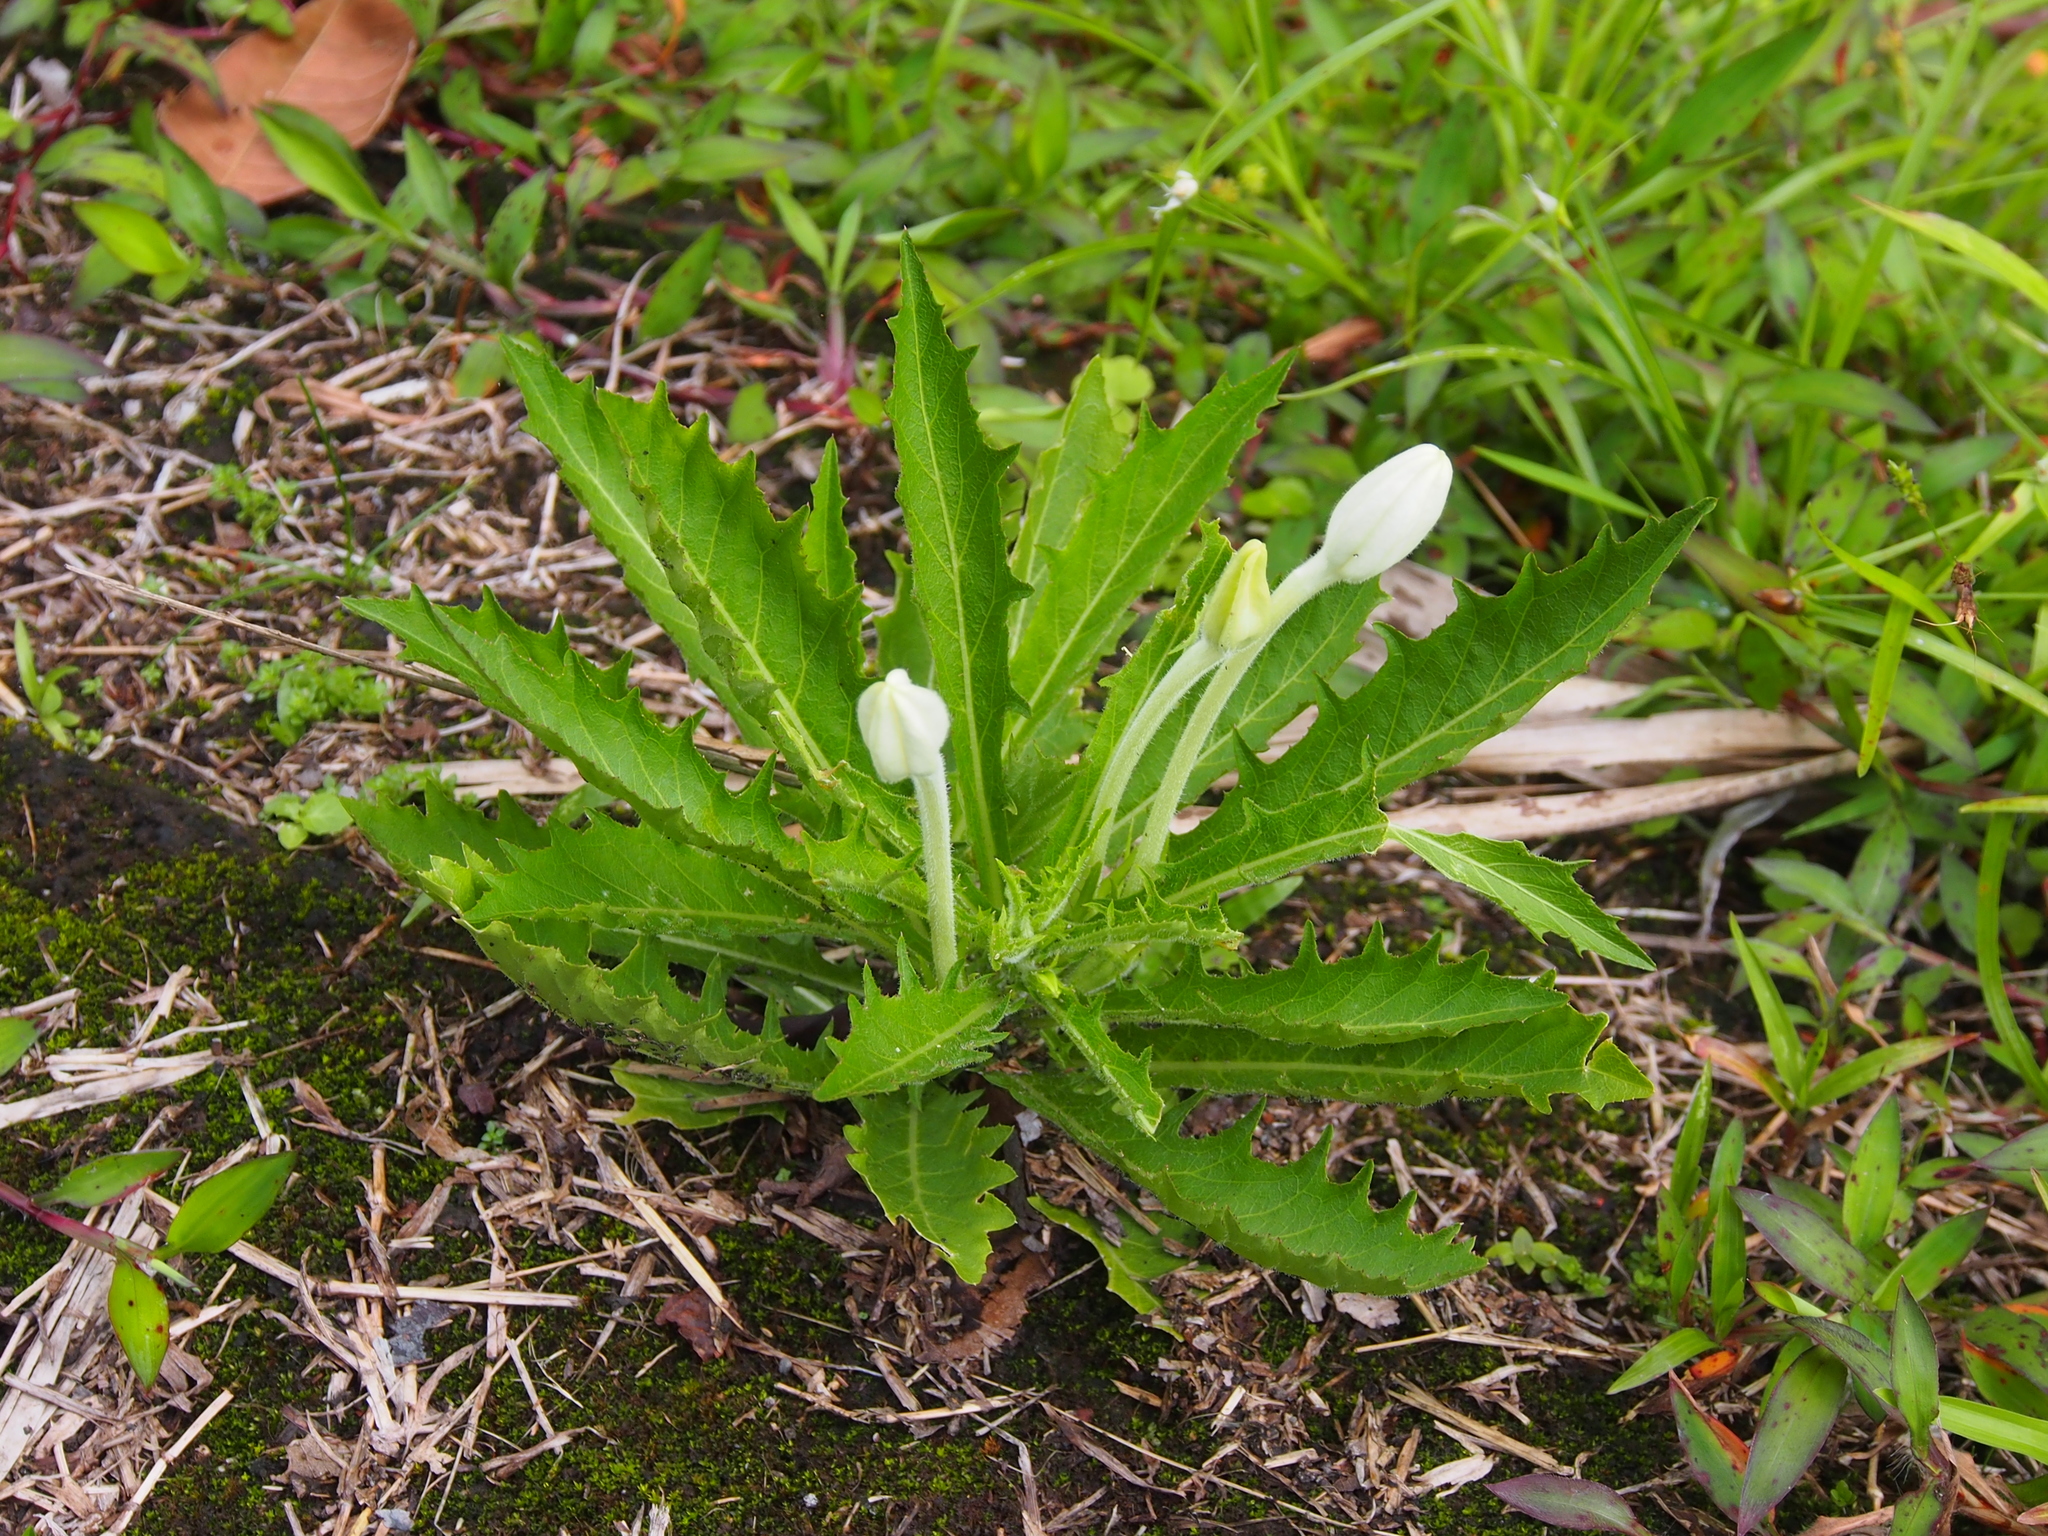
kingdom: Plantae
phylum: Tracheophyta
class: Magnoliopsida
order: Asterales
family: Campanulaceae
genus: Hippobroma
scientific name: Hippobroma longiflora
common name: Madamfate
